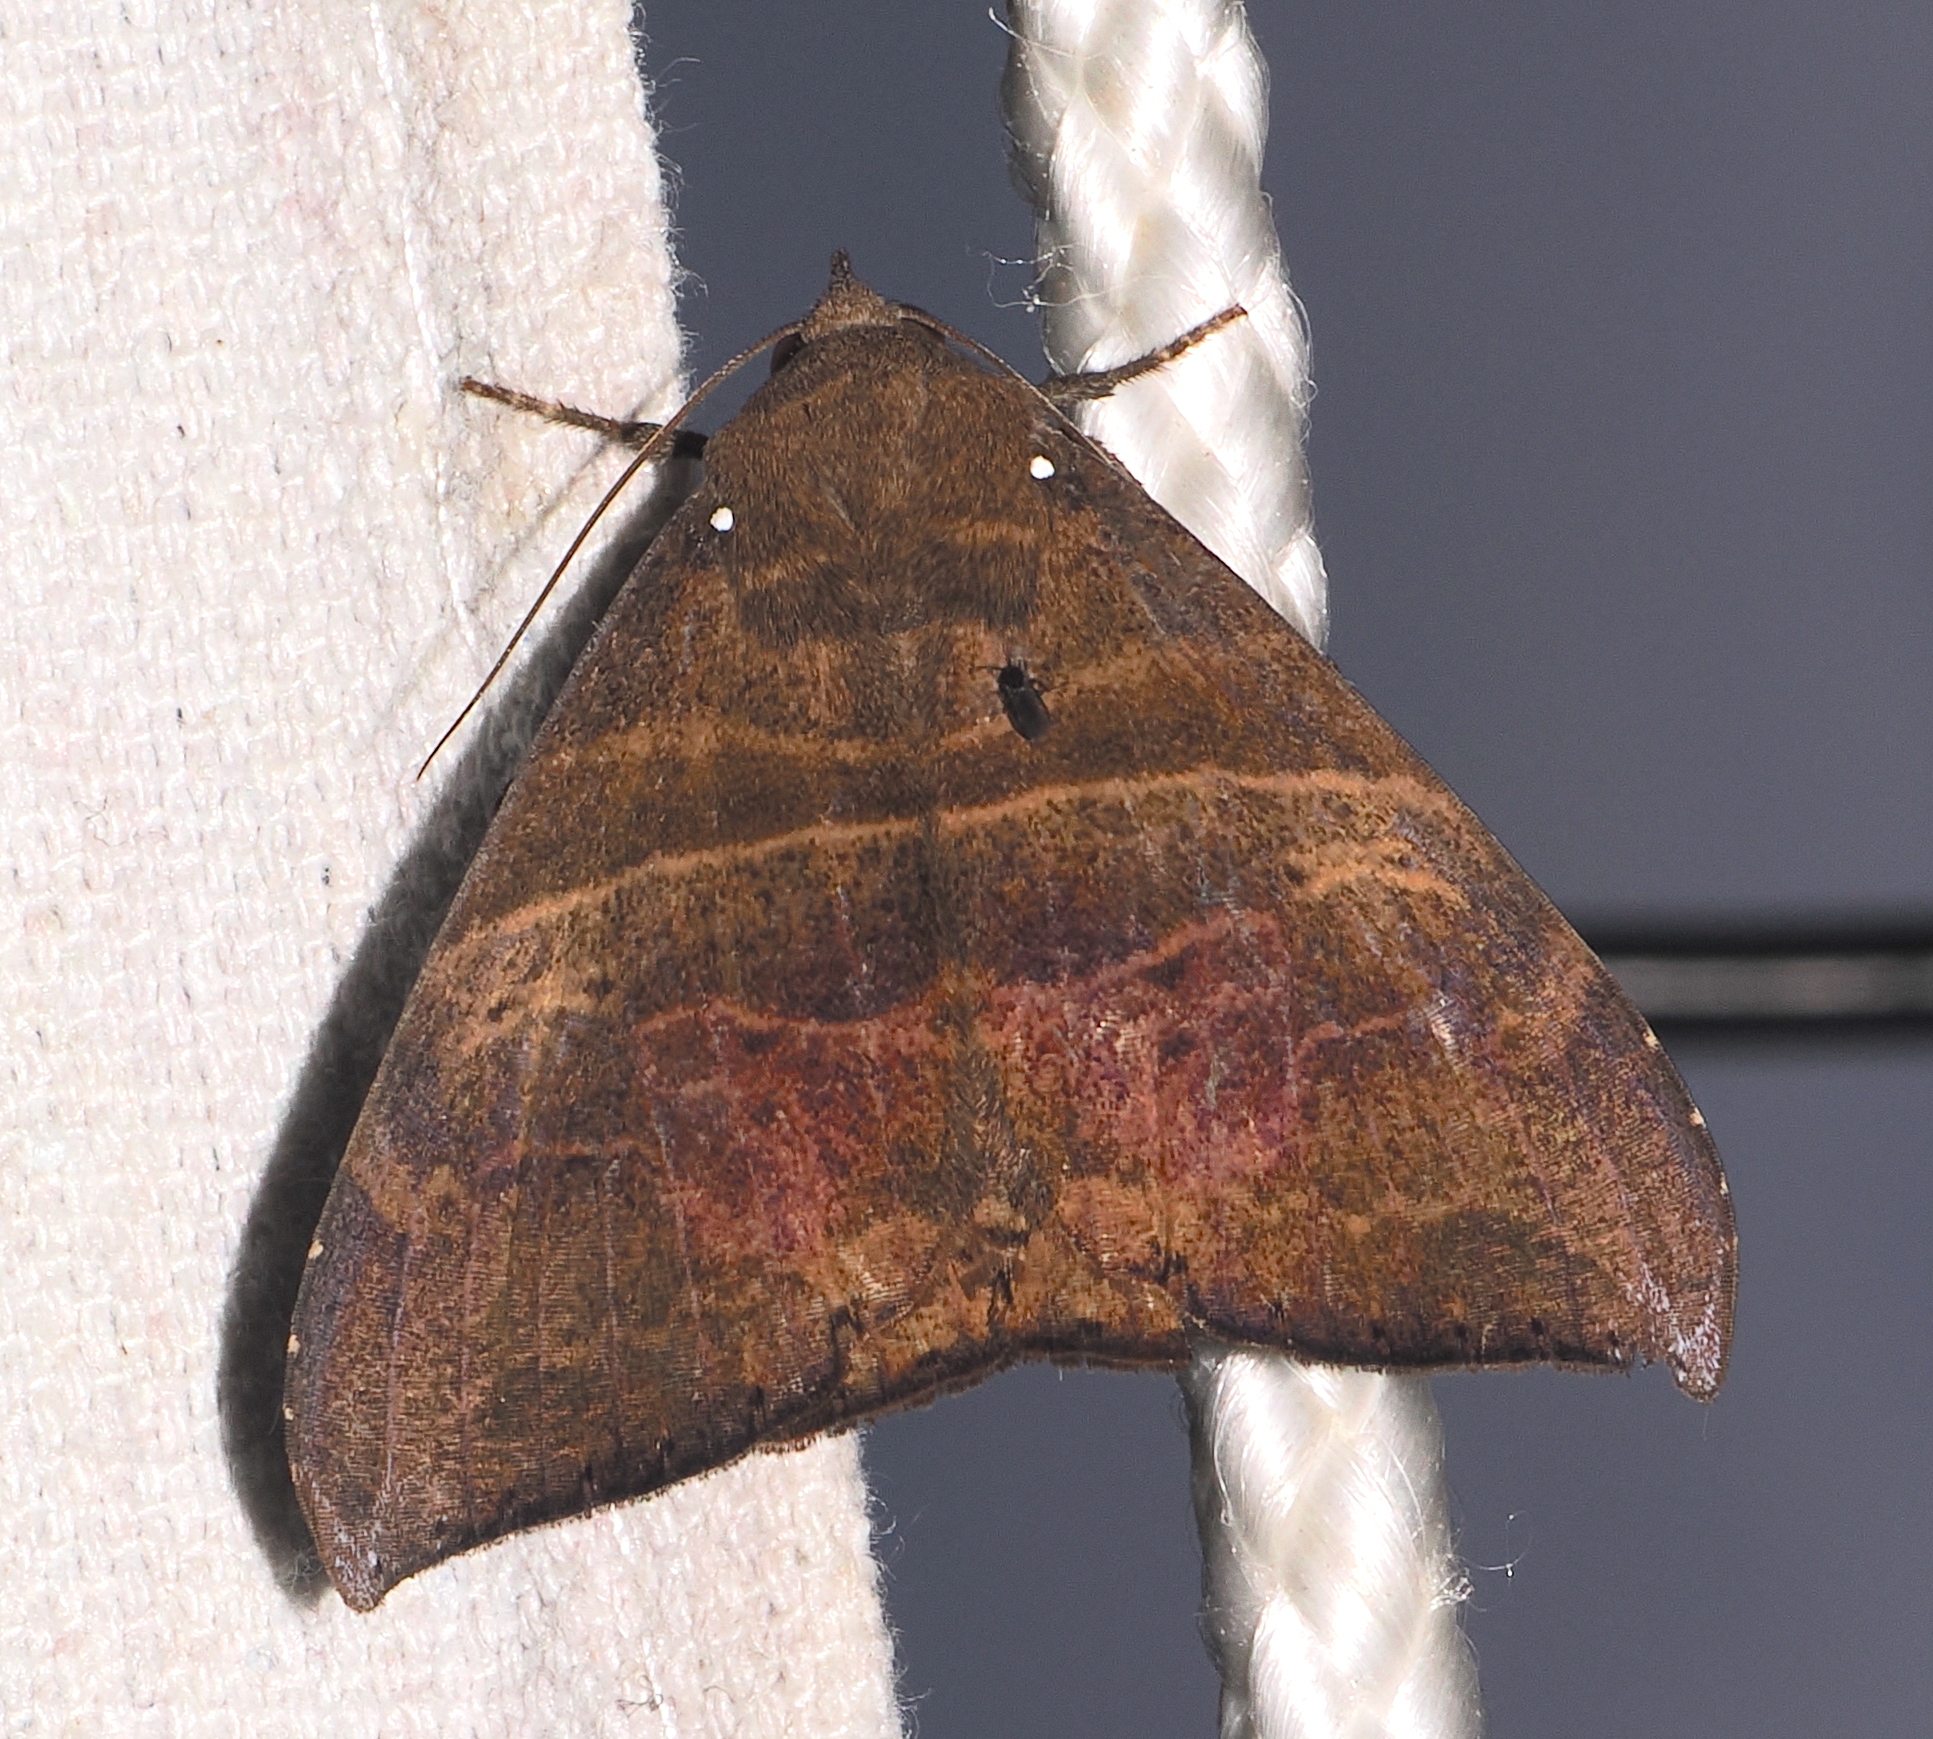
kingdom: Animalia
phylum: Arthropoda
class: Insecta
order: Lepidoptera
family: Erebidae
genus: Neophisma
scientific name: Neophisma
